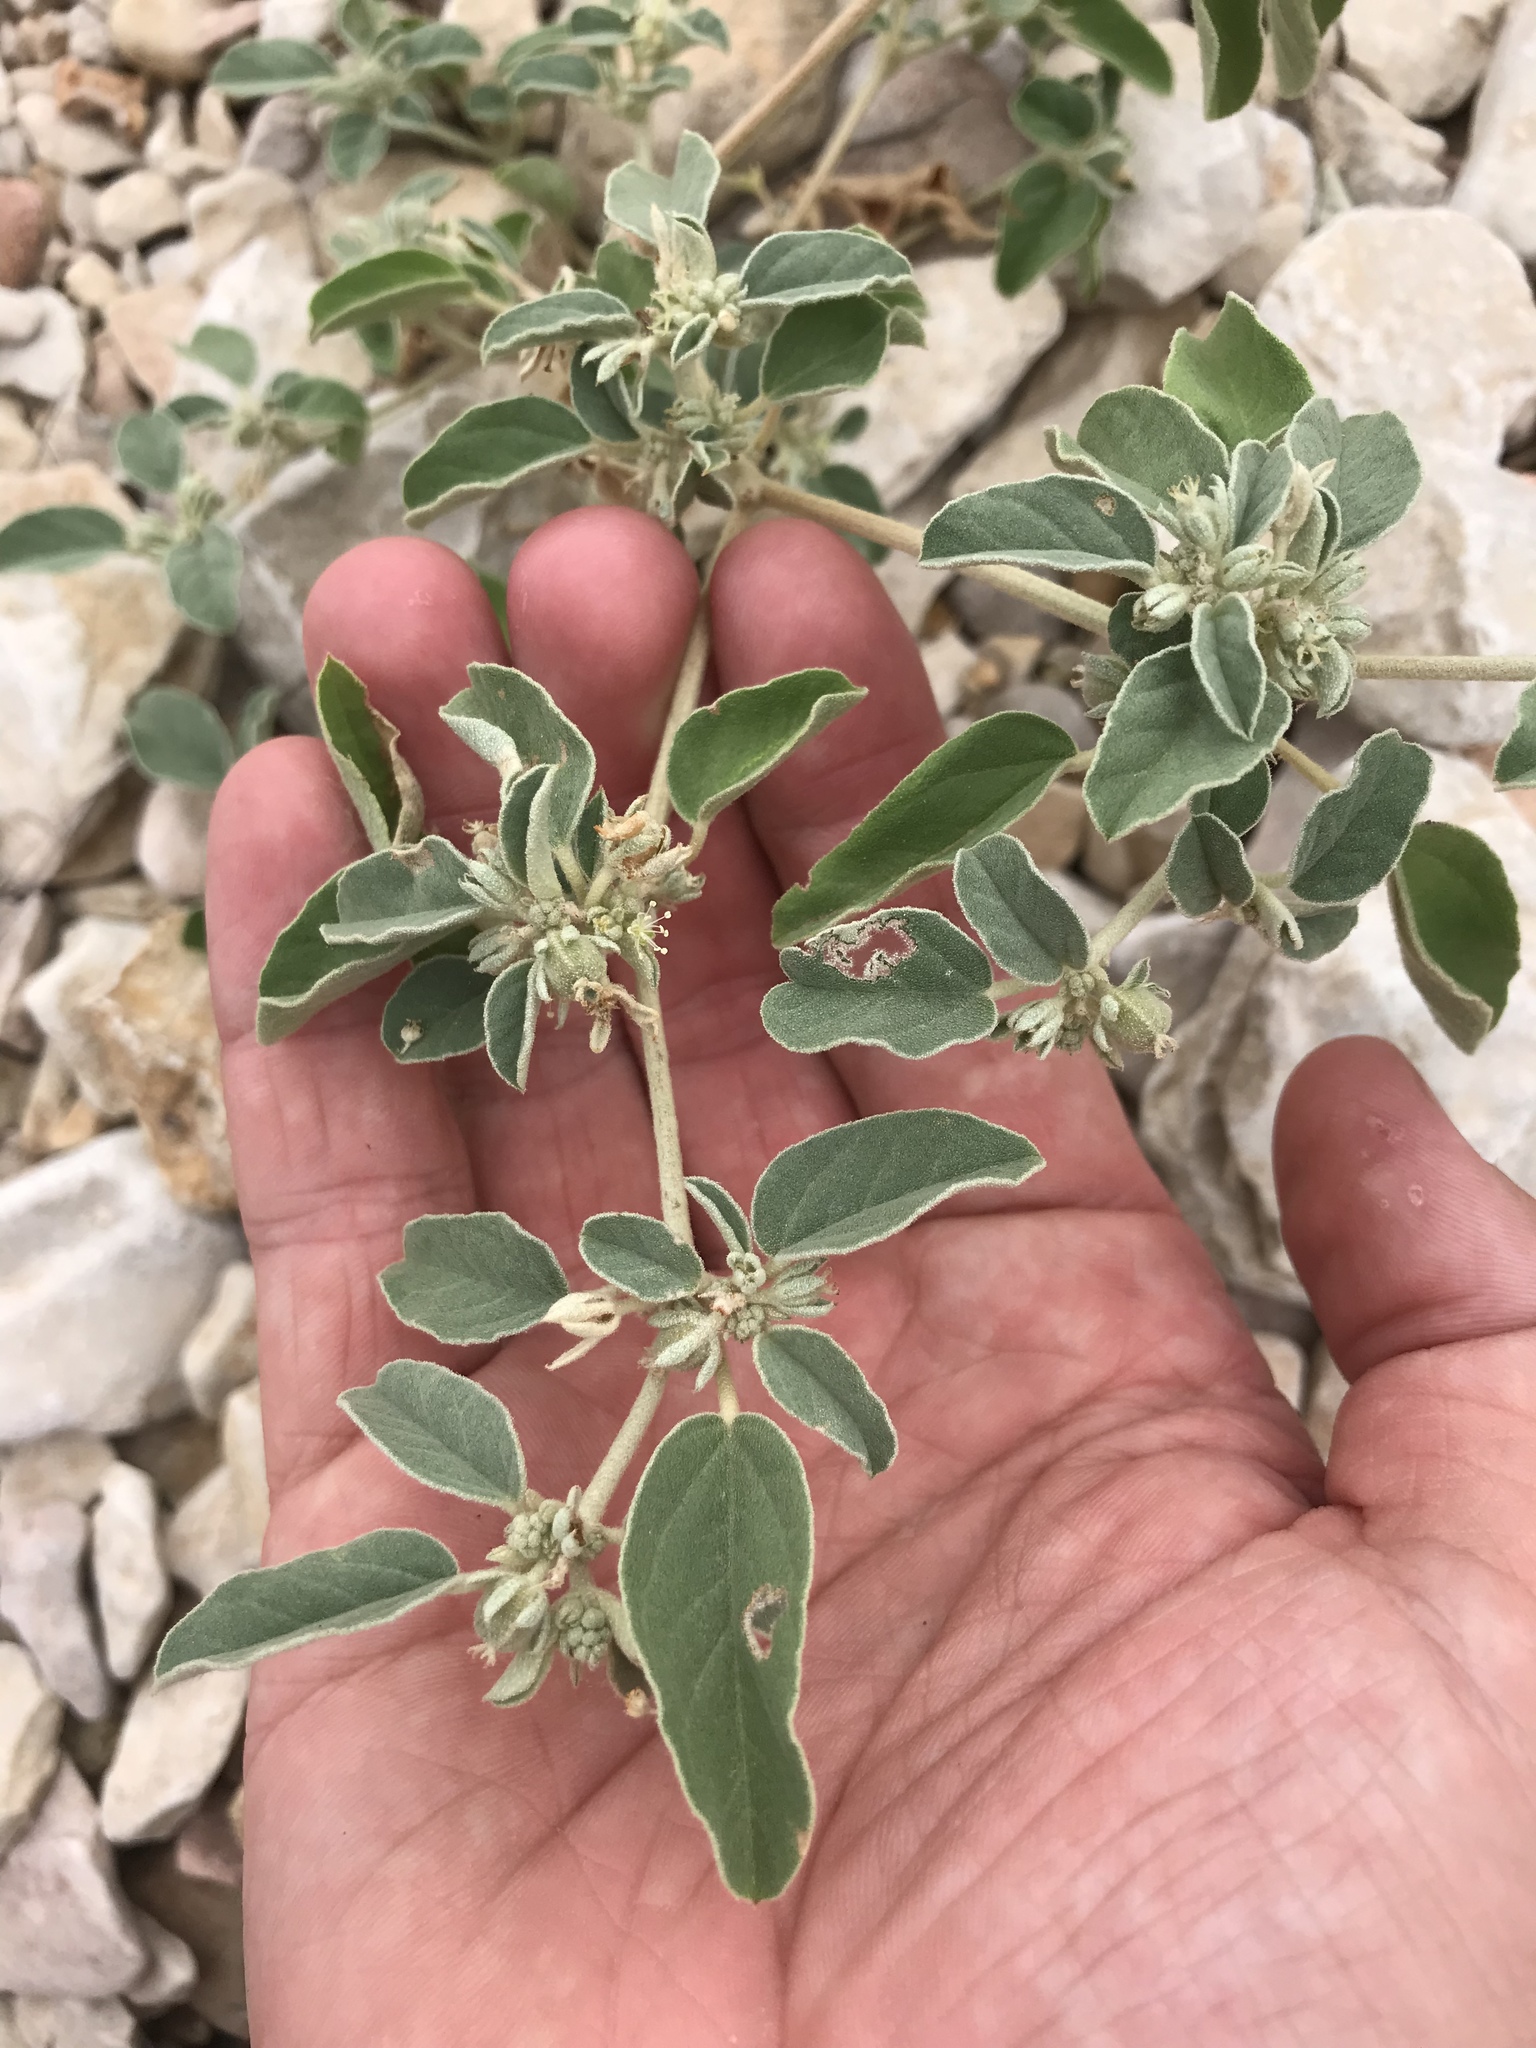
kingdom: Plantae
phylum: Tracheophyta
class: Magnoliopsida
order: Malpighiales
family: Euphorbiaceae
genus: Croton
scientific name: Croton lindheimerianus
